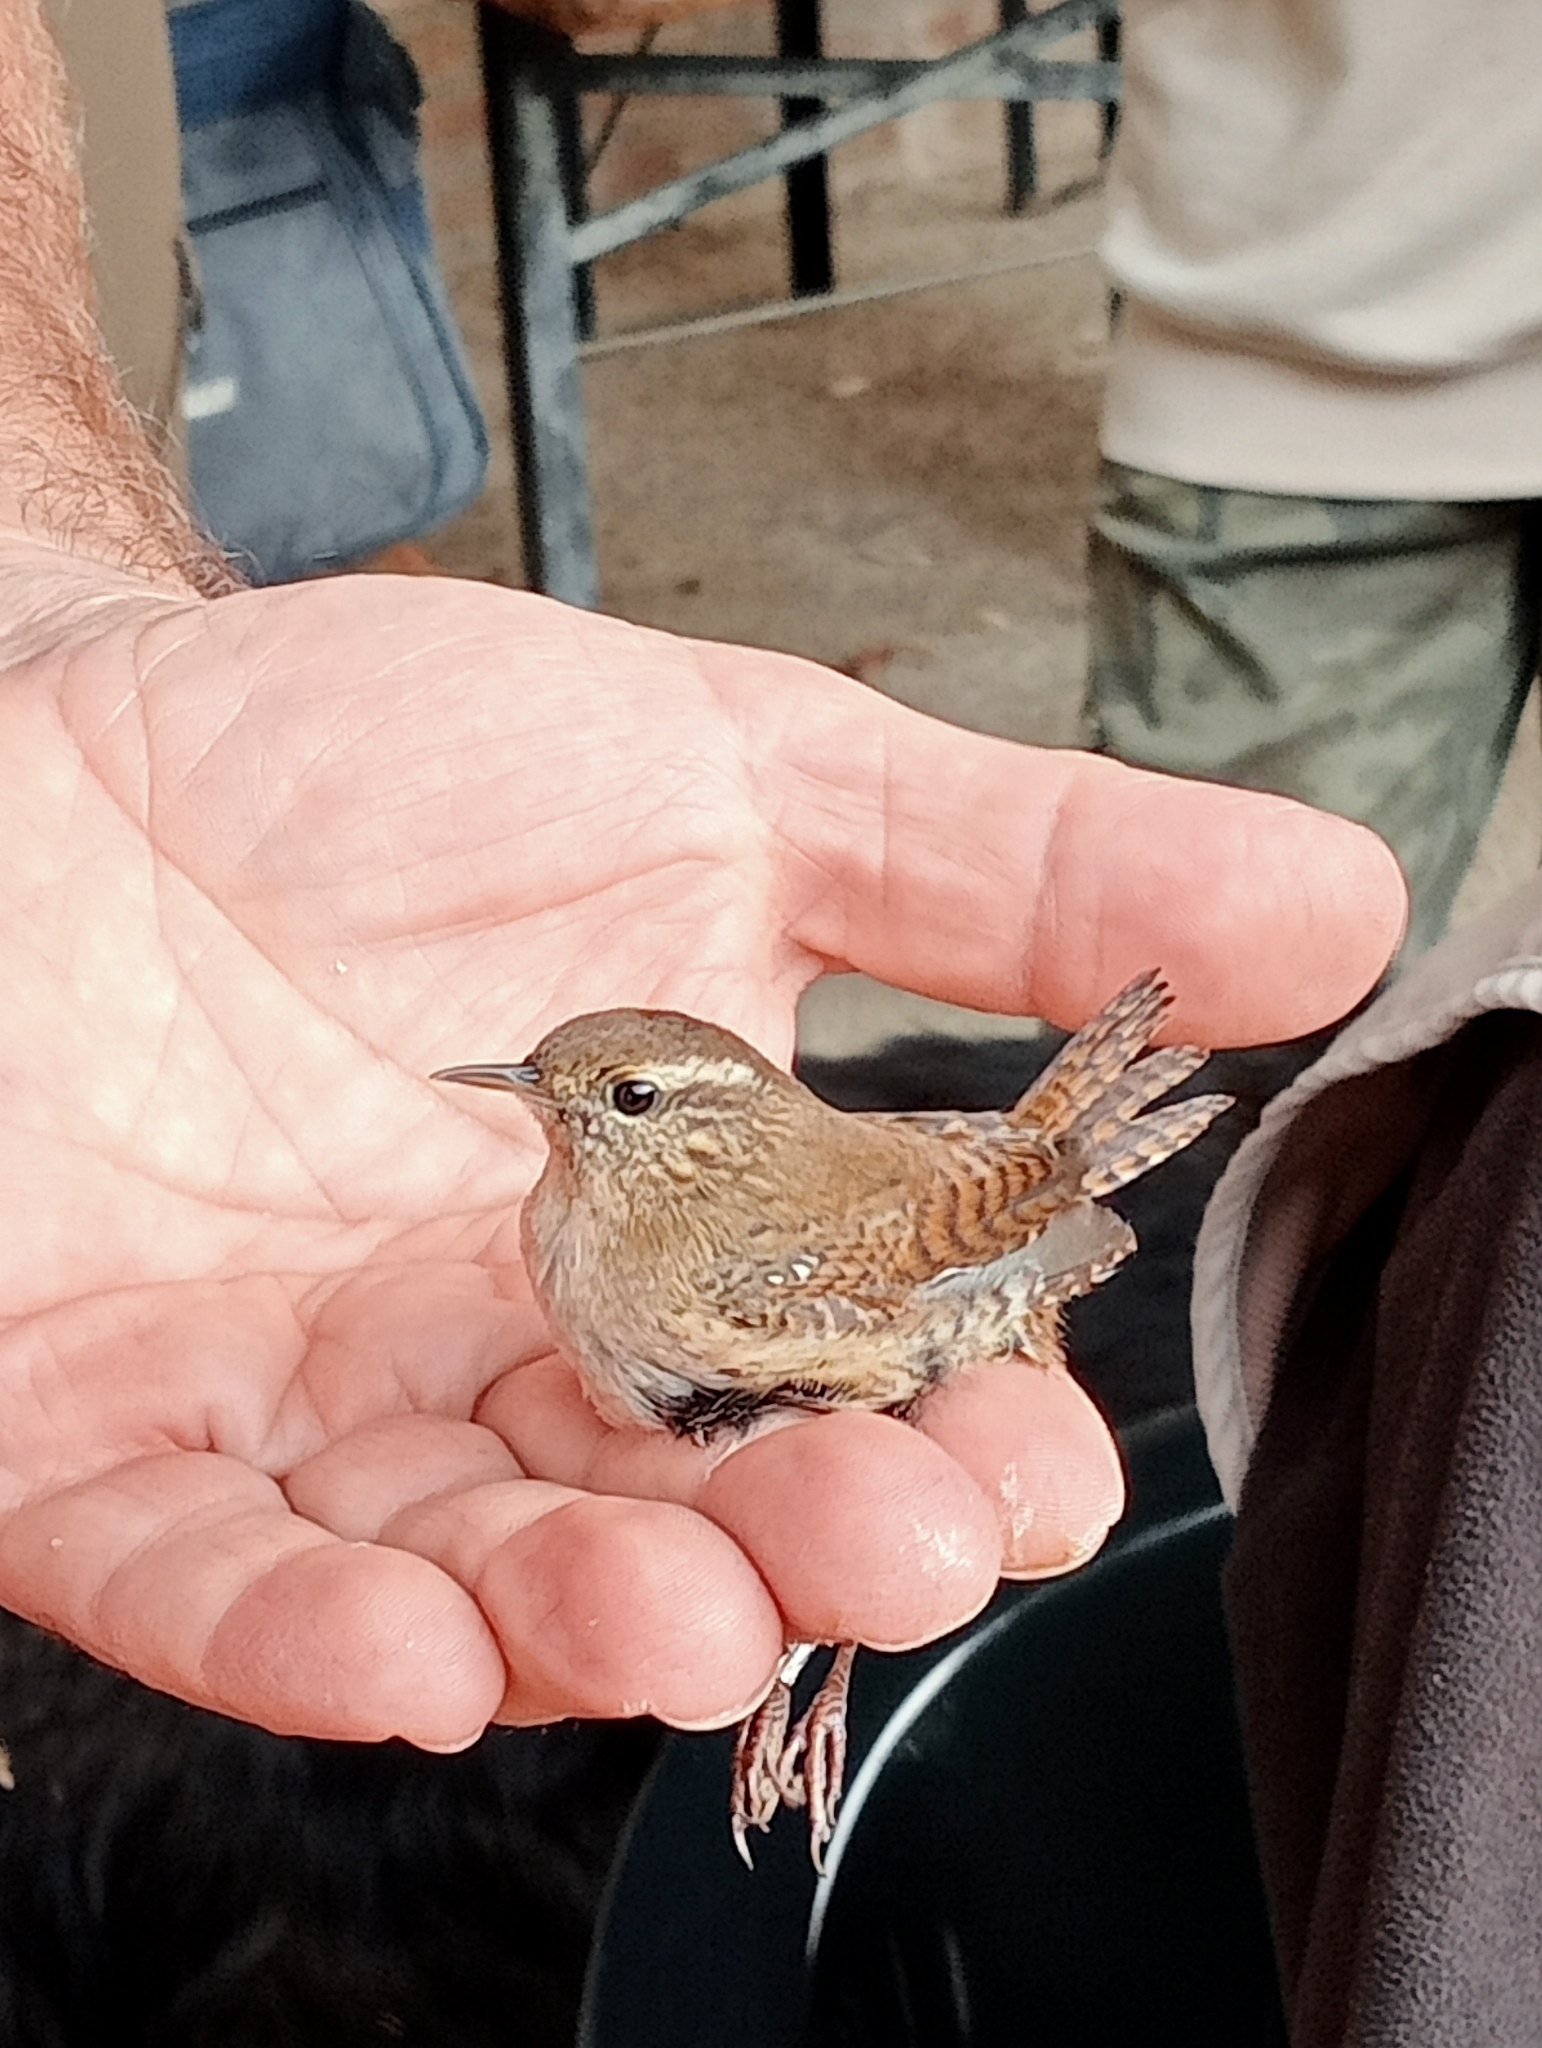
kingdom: Animalia
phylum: Chordata
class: Aves
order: Passeriformes
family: Troglodytidae
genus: Troglodytes
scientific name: Troglodytes troglodytes
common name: Eurasian wren
